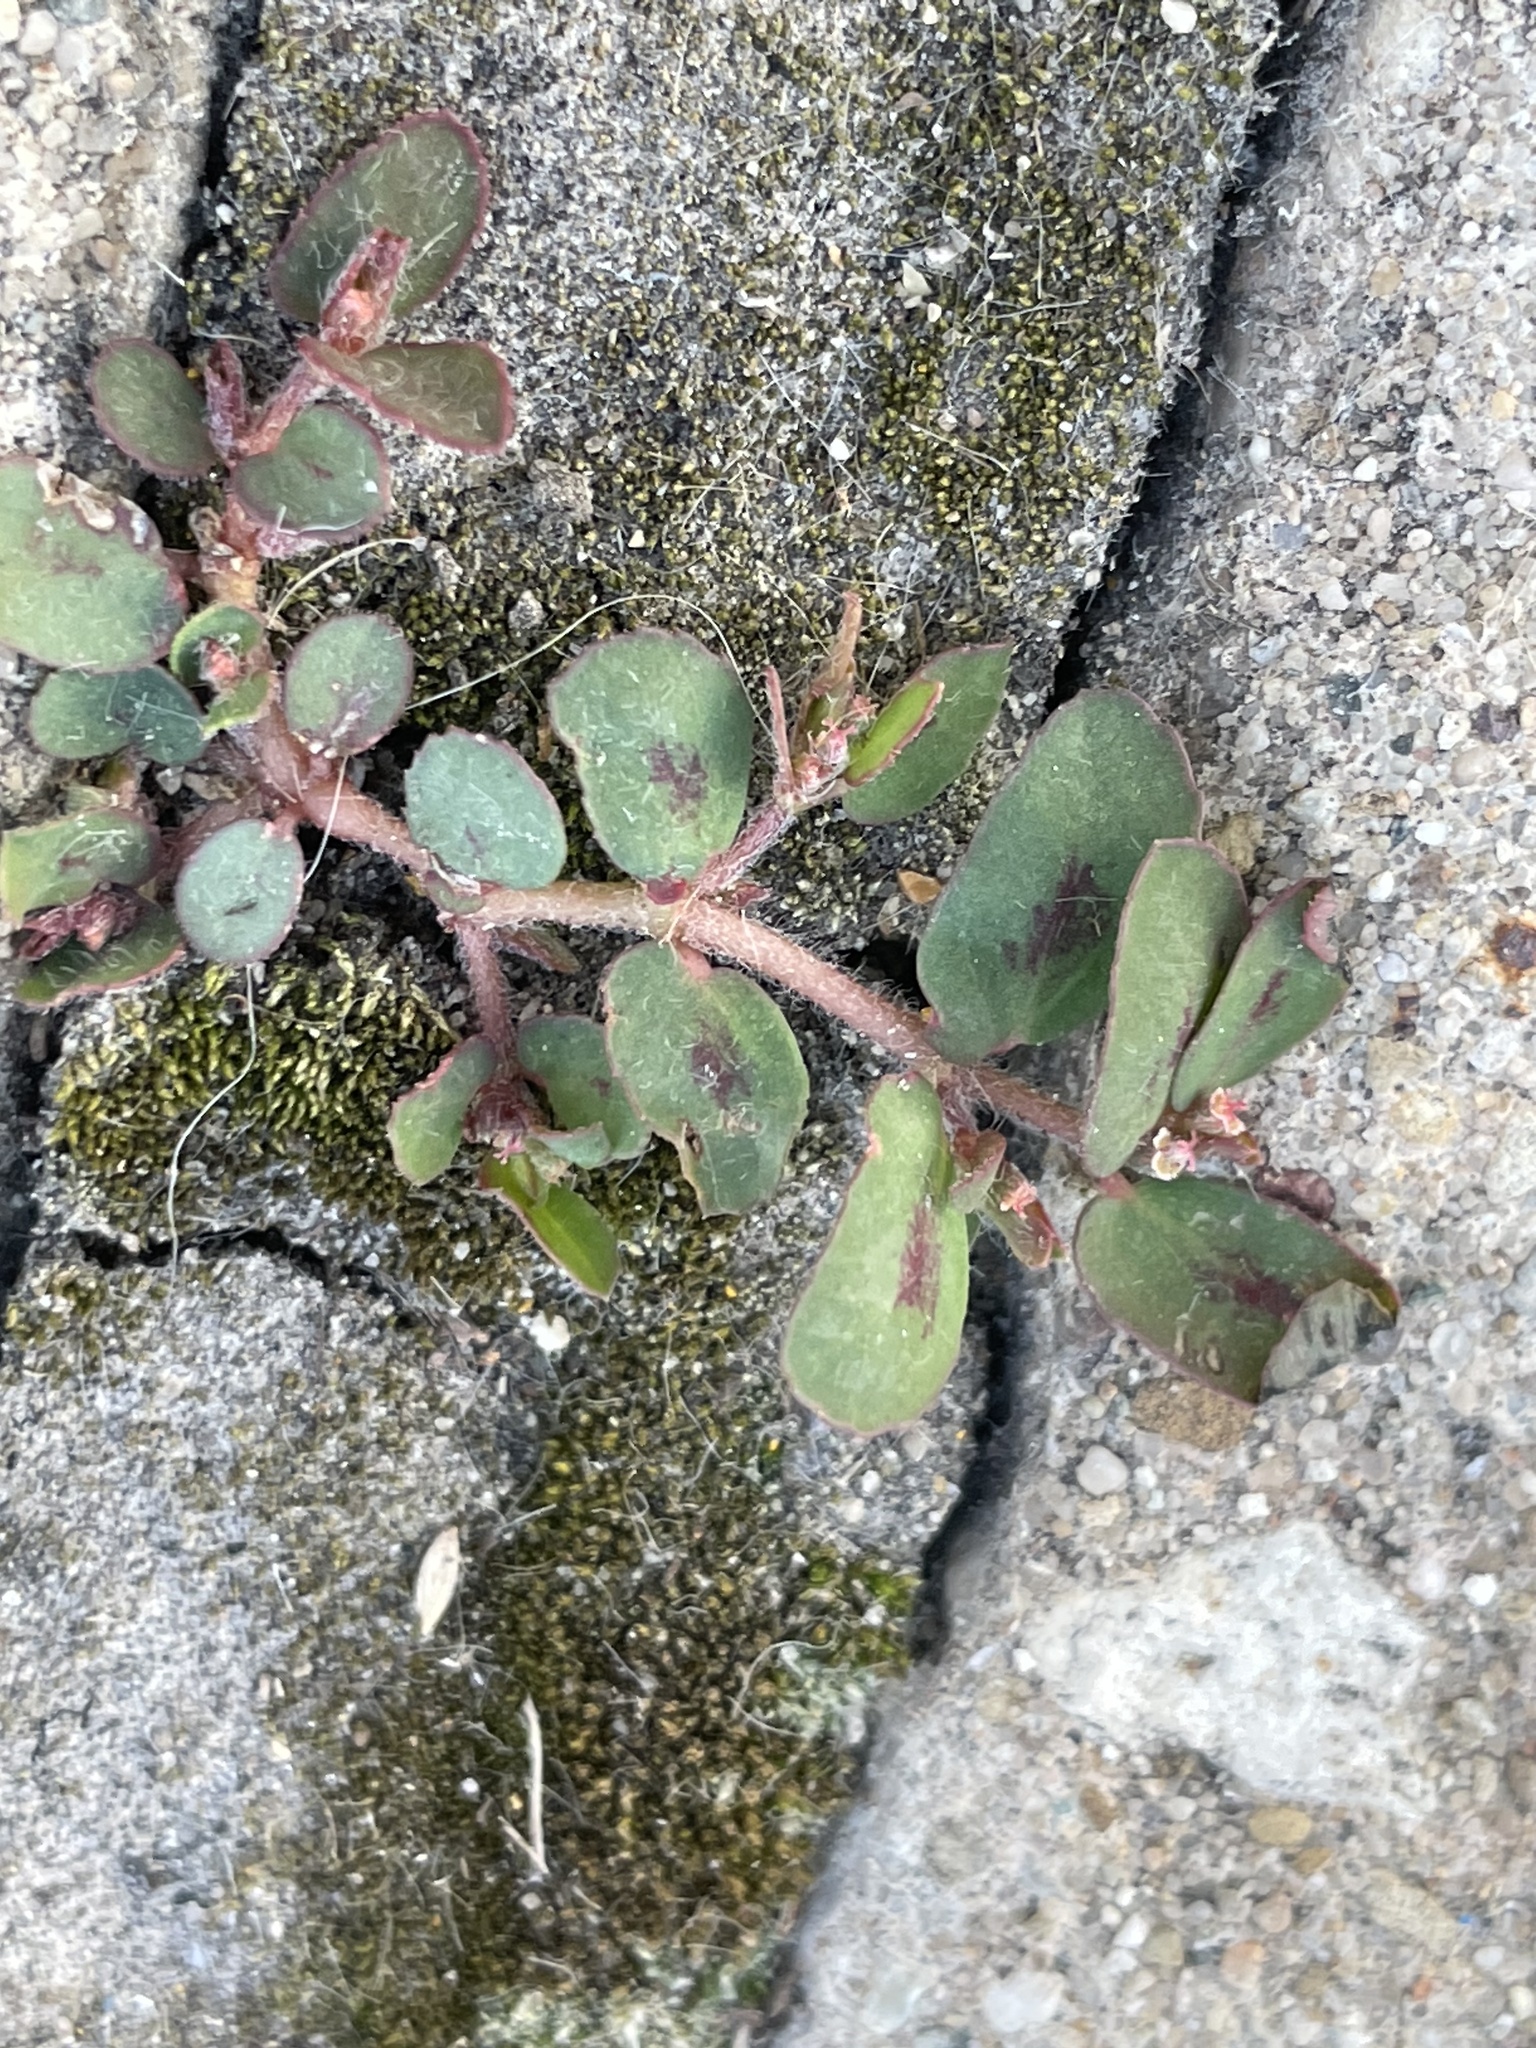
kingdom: Plantae
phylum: Tracheophyta
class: Magnoliopsida
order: Malpighiales
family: Euphorbiaceae
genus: Euphorbia
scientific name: Euphorbia maculata
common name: Spotted spurge
